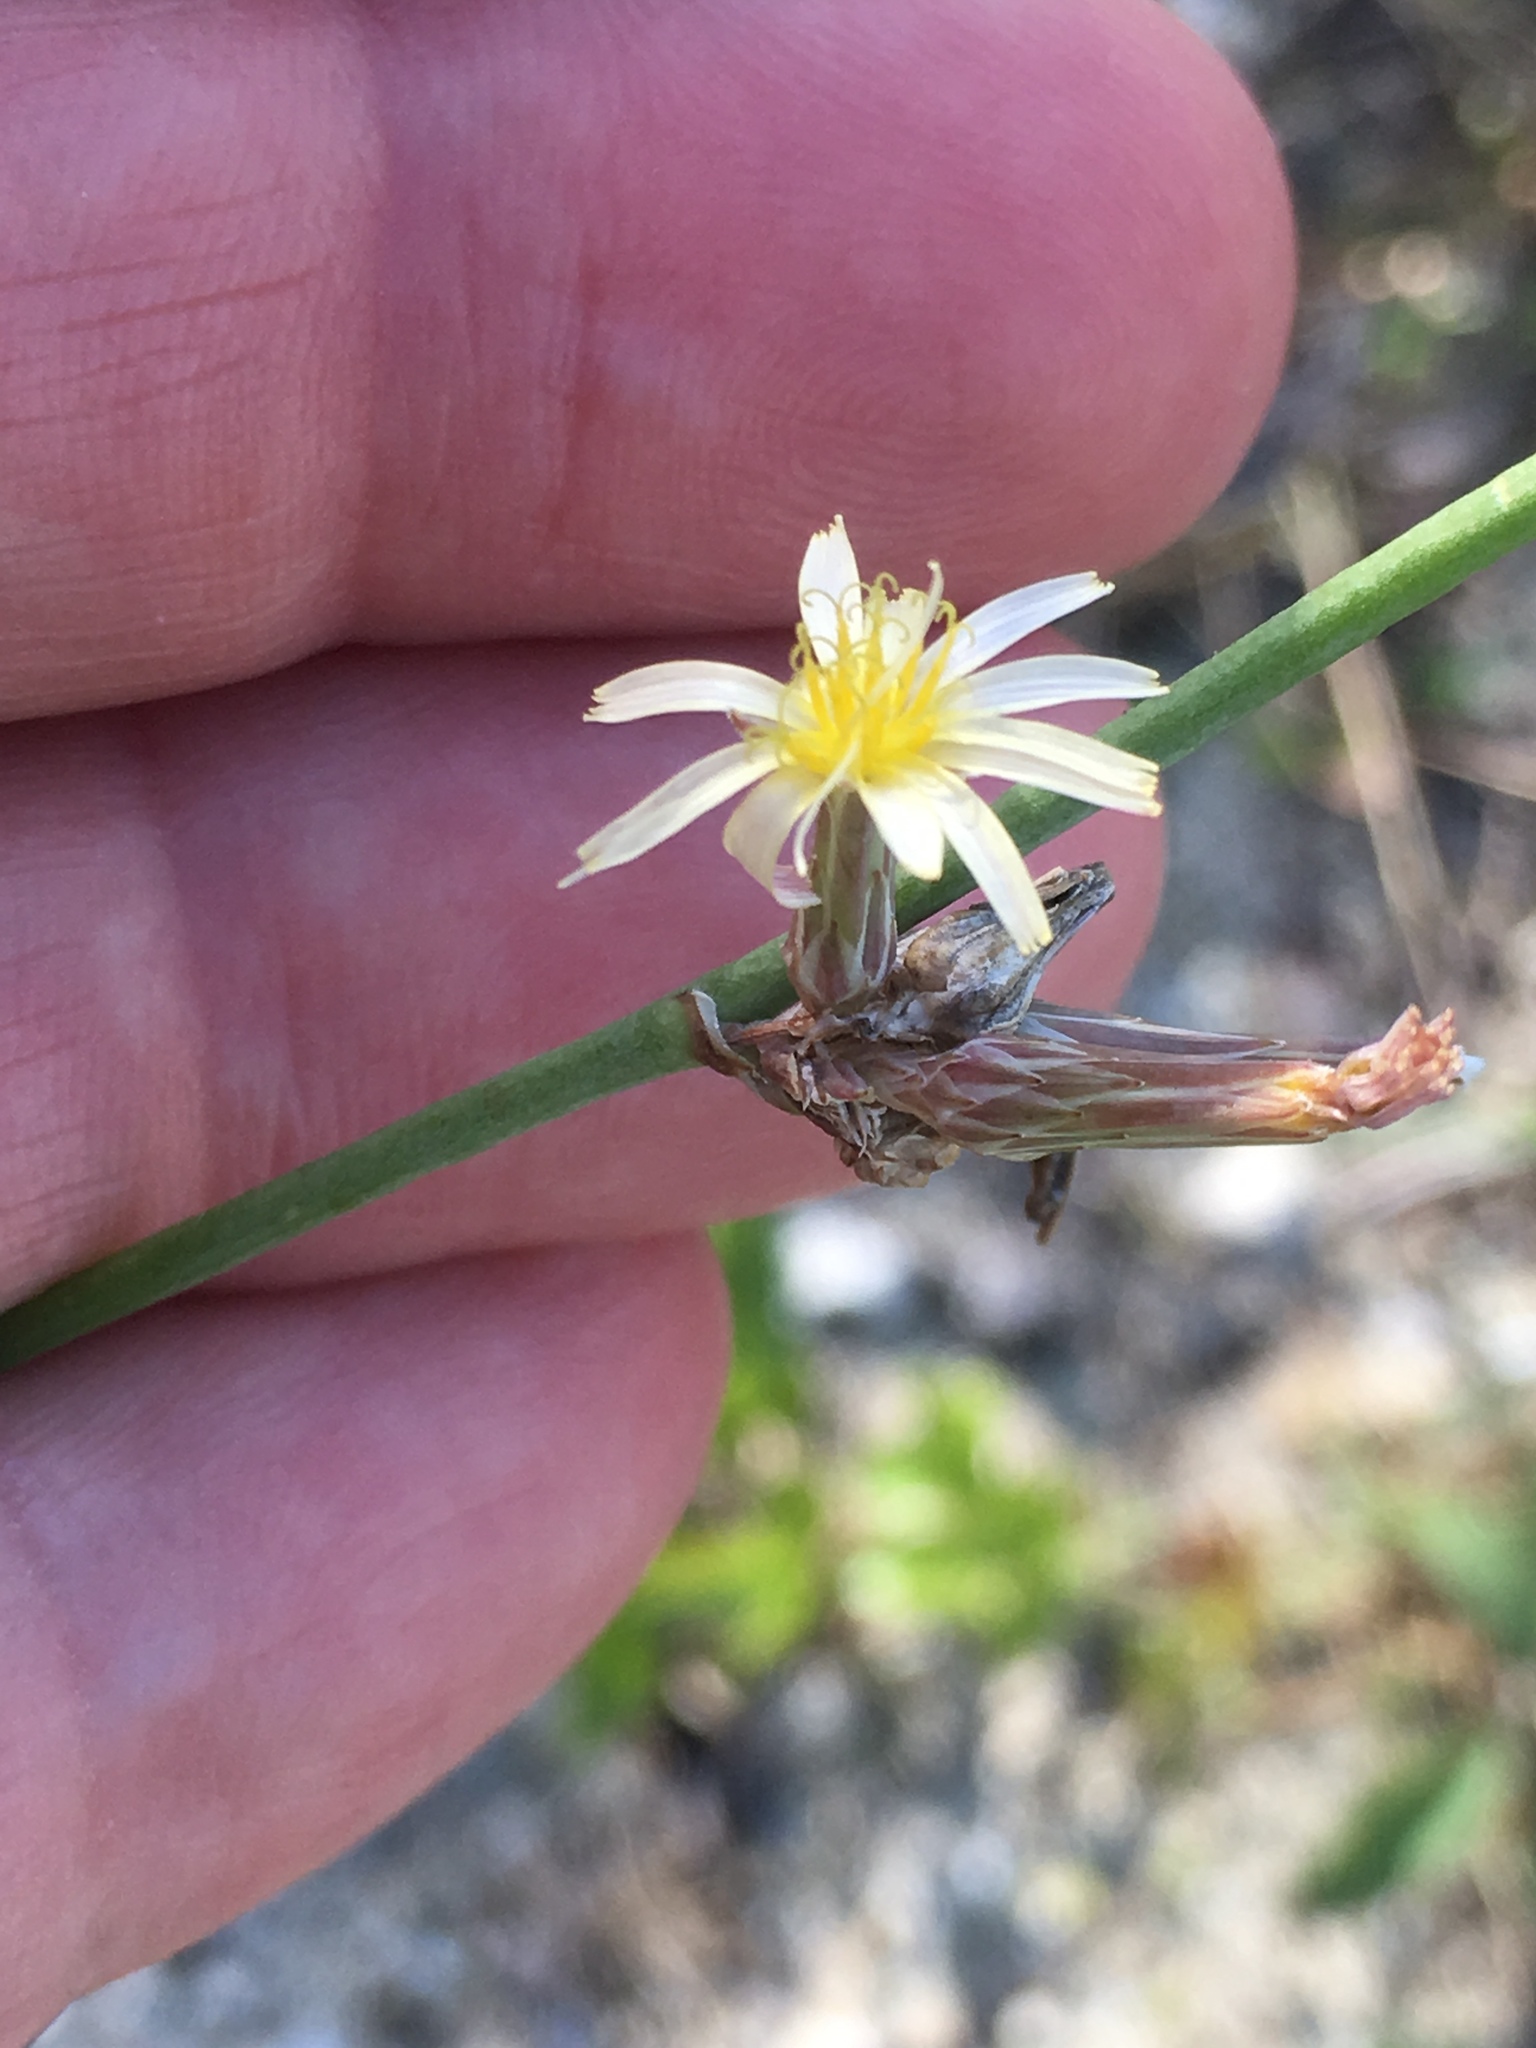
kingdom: Plantae
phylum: Tracheophyta
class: Magnoliopsida
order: Asterales
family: Asteraceae
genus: Launaea
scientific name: Launaea intybacea
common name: Achicoria azul
